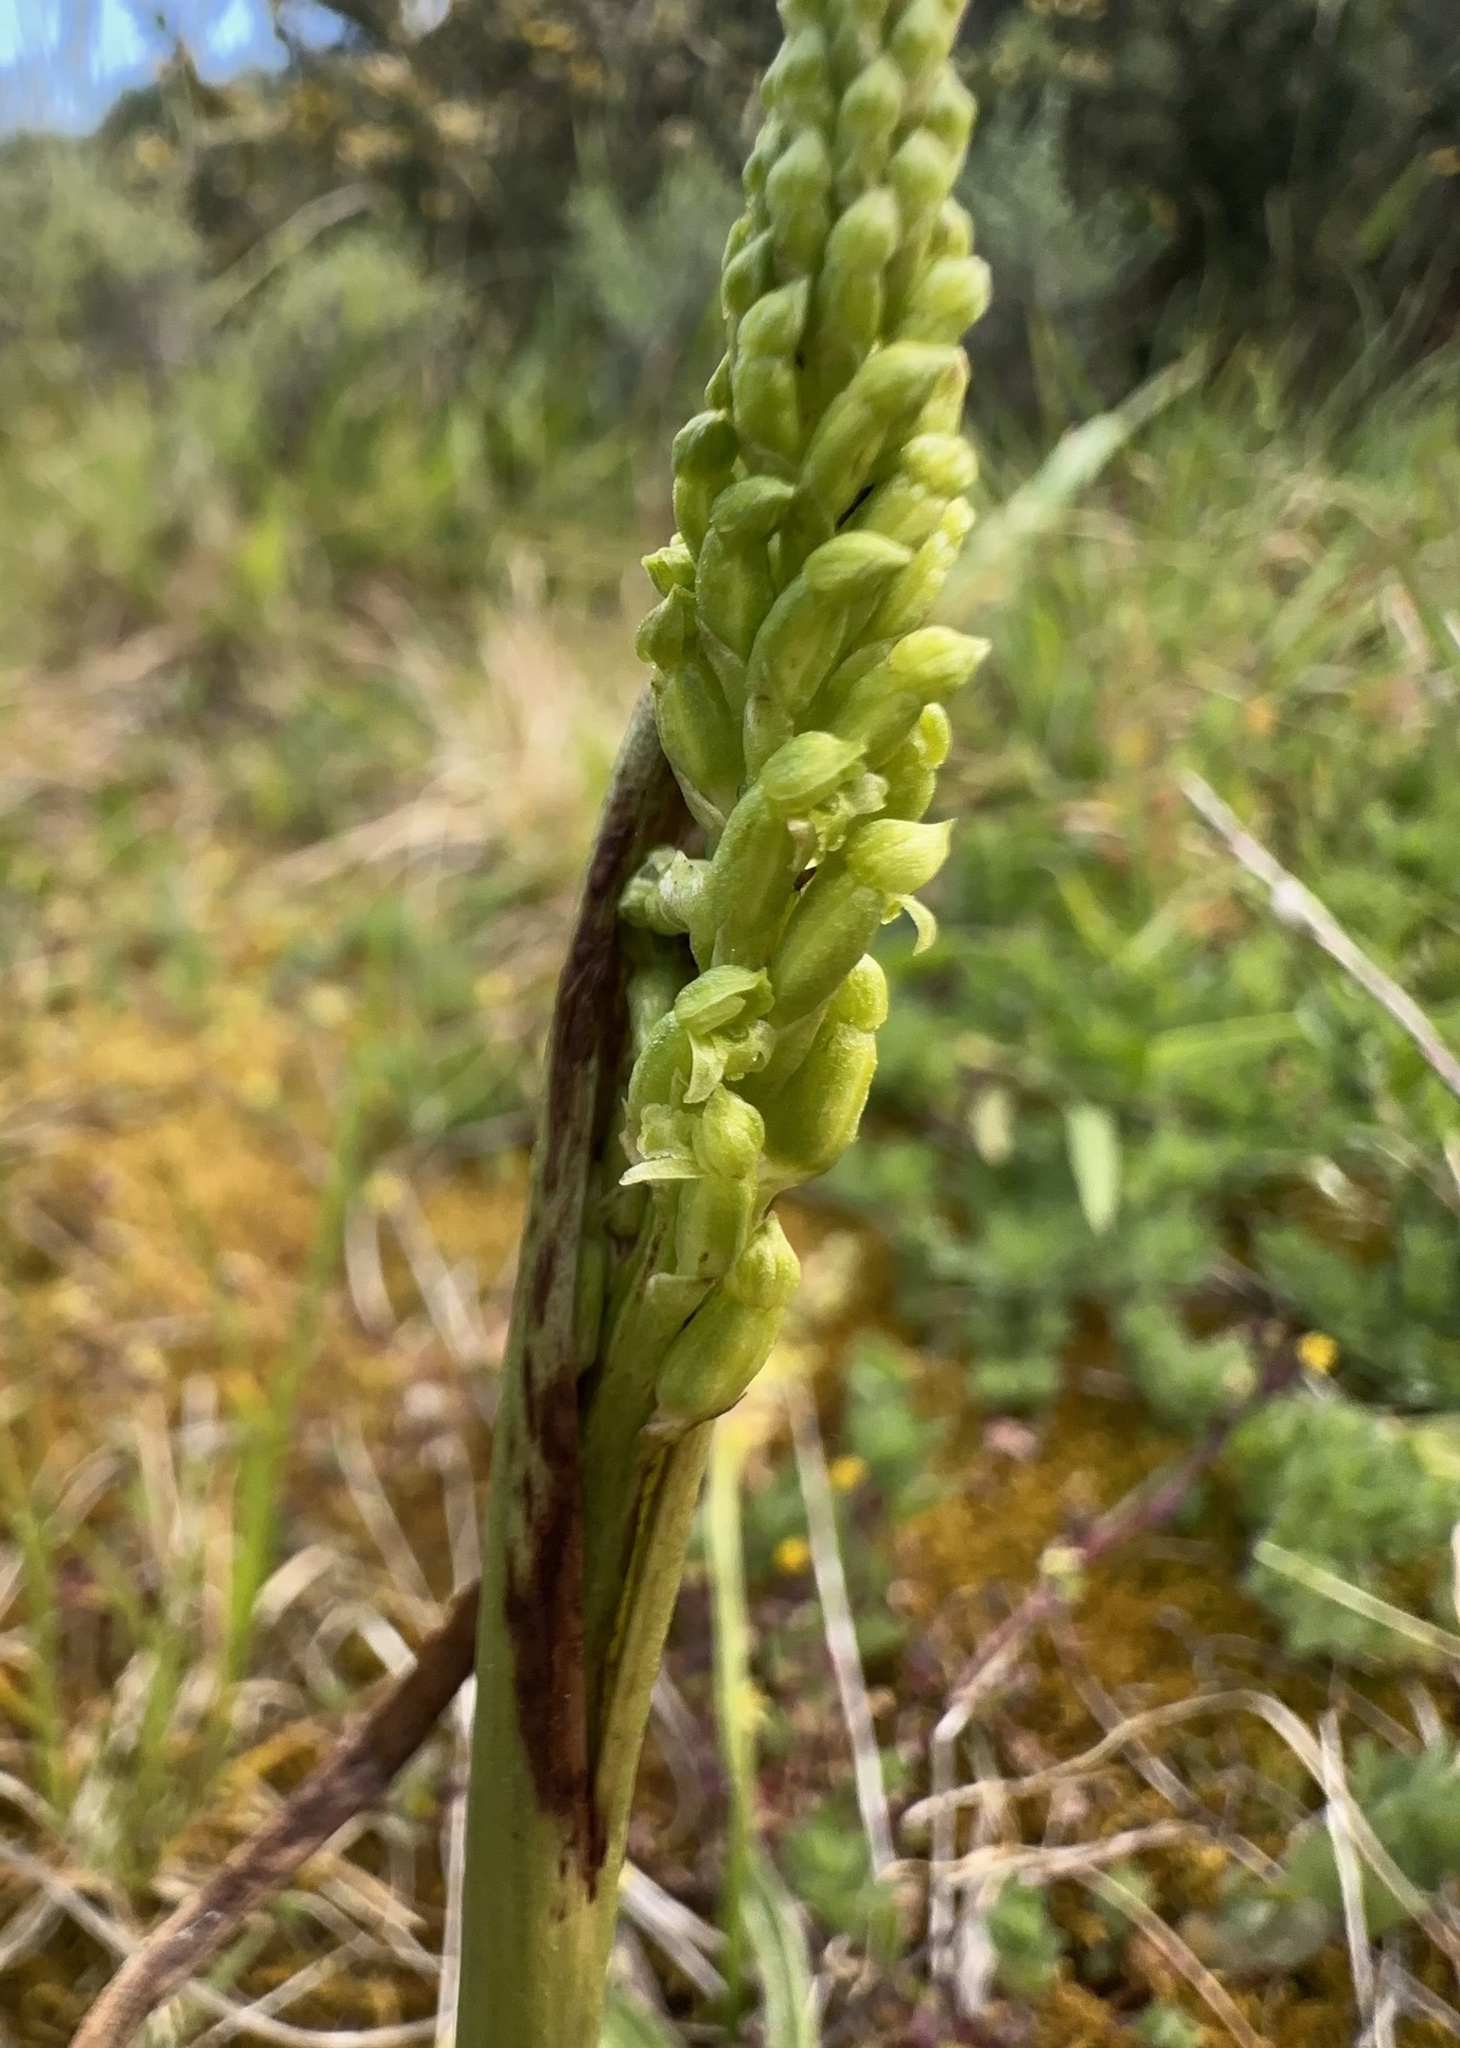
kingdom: Plantae
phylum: Tracheophyta
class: Liliopsida
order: Asparagales
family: Orchidaceae
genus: Microtis
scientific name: Microtis unifolia
